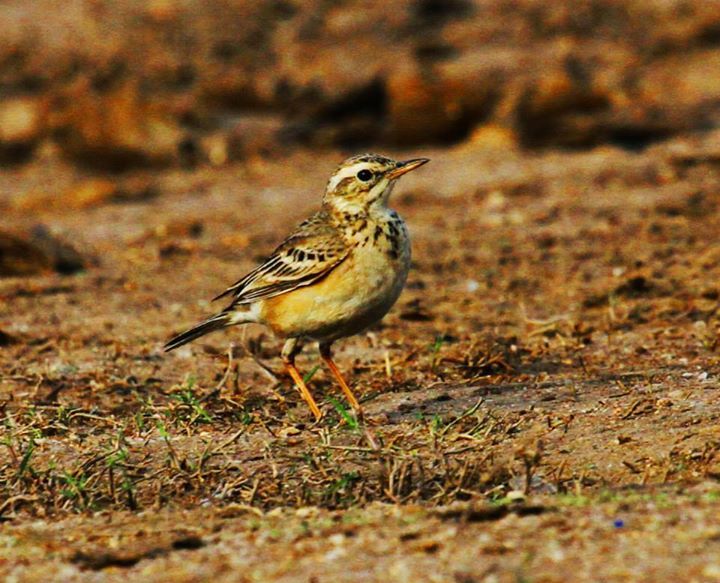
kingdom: Animalia
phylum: Chordata
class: Aves
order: Passeriformes
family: Motacillidae
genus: Anthus
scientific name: Anthus rufulus
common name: Paddyfield pipit
